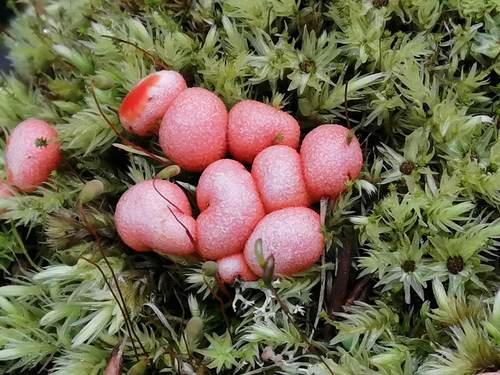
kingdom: Protozoa
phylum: Mycetozoa
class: Myxomycetes
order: Cribrariales
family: Tubiferaceae
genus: Lycogala
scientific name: Lycogala epidendrum
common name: Wolf's milk
